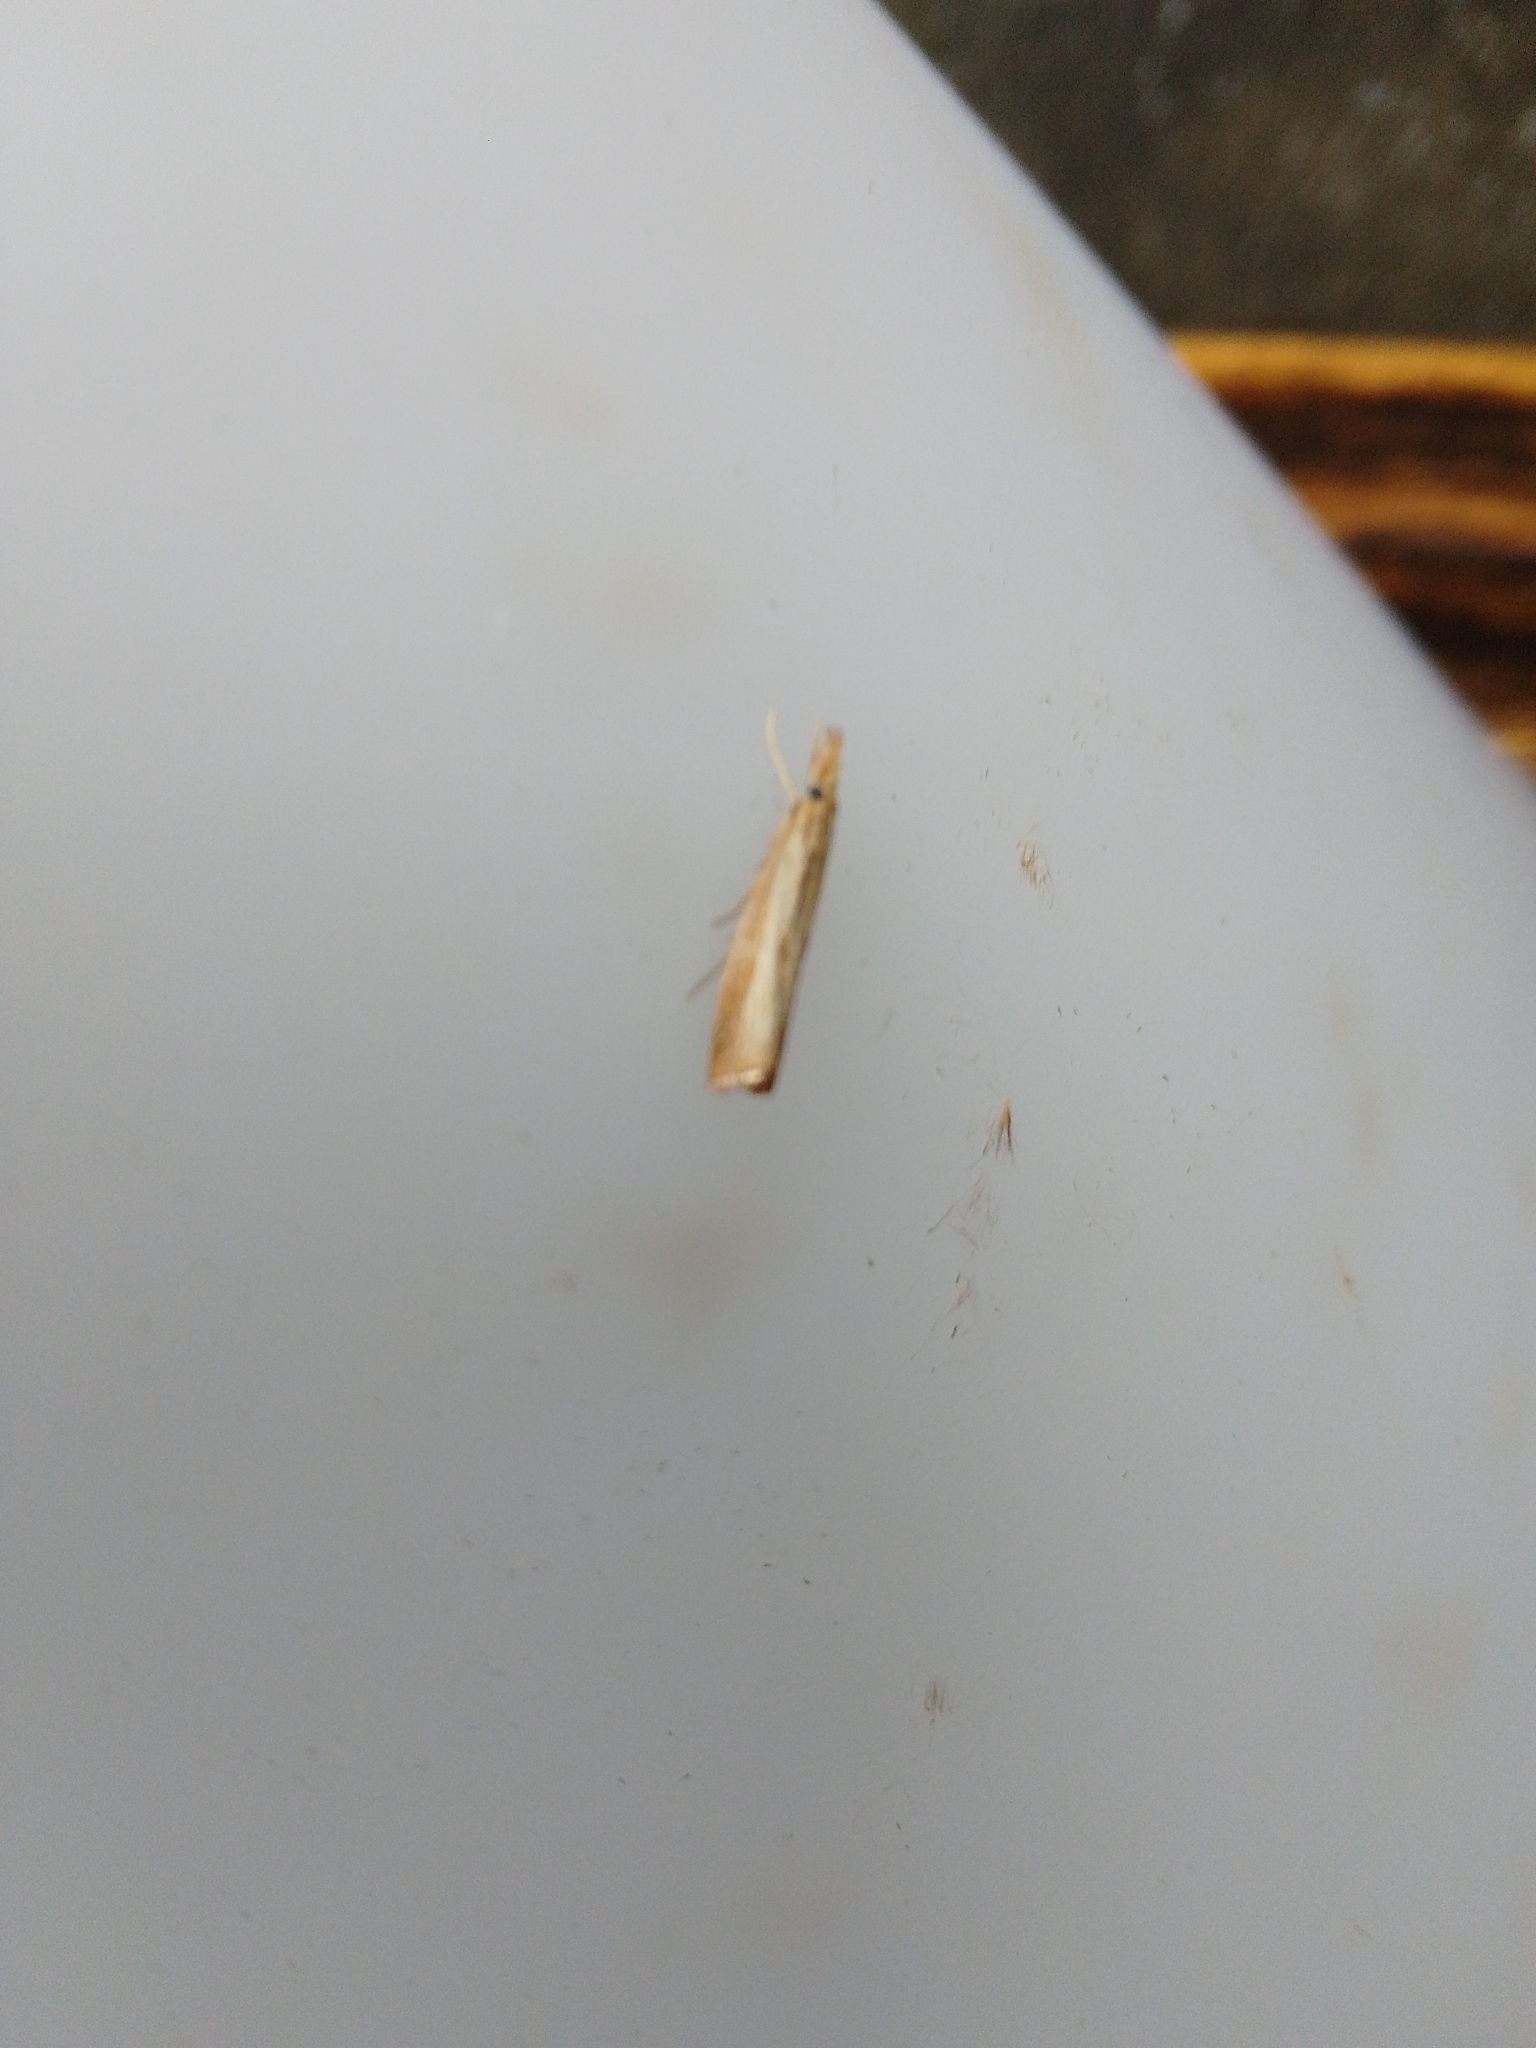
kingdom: Animalia
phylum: Arthropoda
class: Insecta
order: Lepidoptera
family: Crambidae
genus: Agriphila
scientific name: Agriphila straminella
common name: Straw grass-veneer
